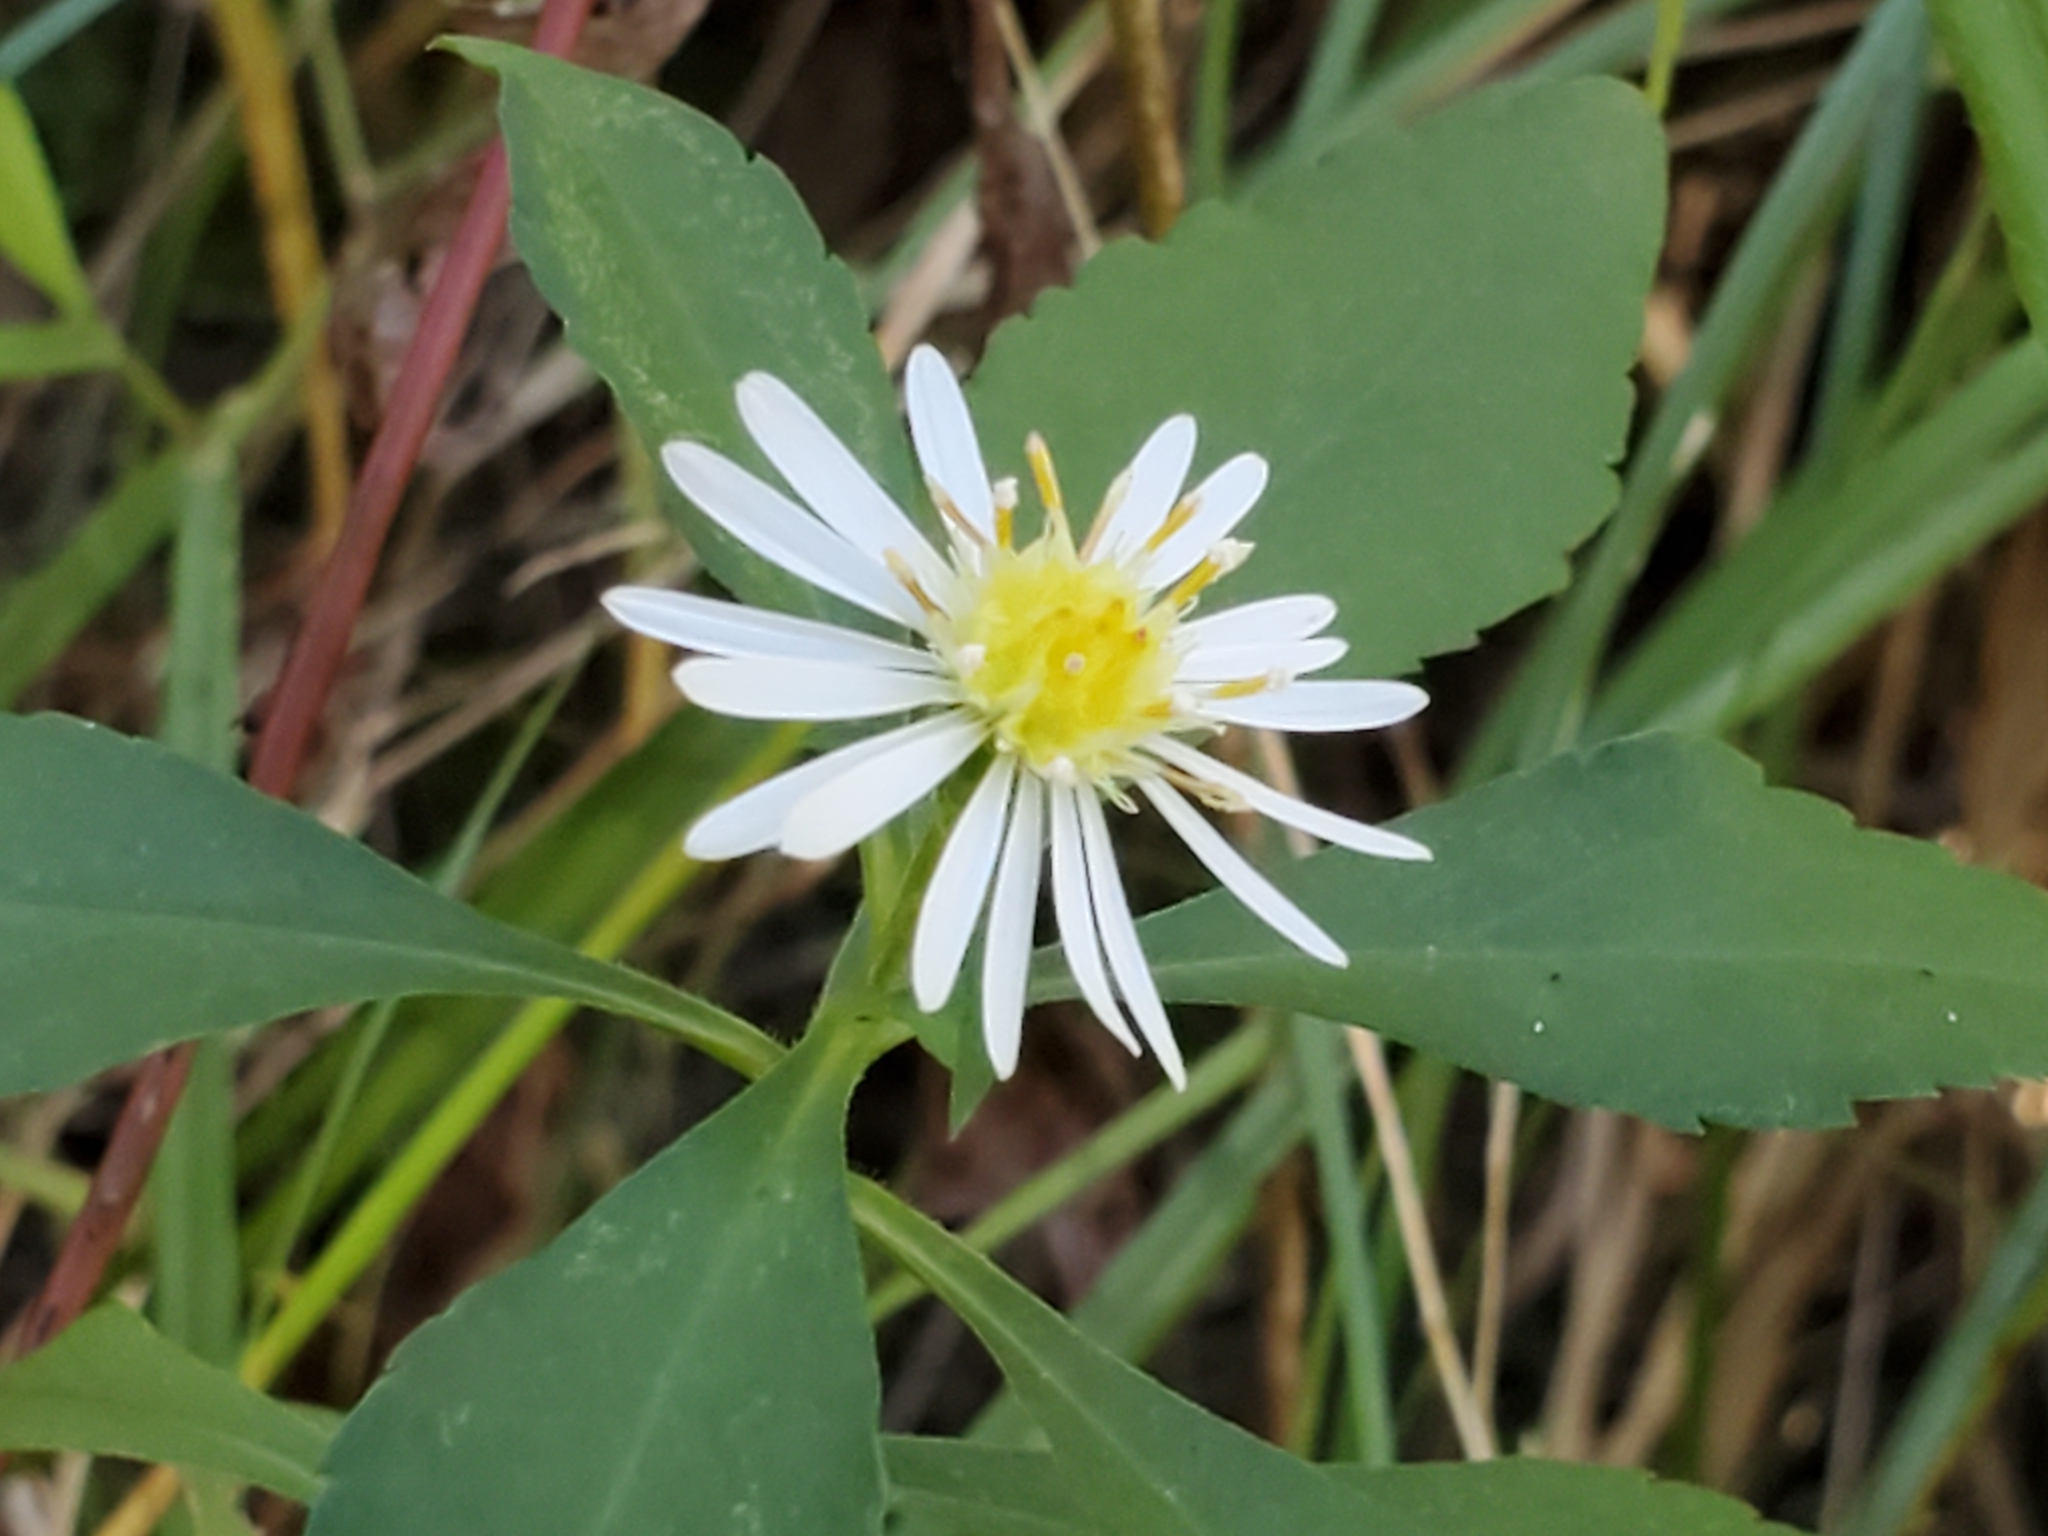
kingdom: Plantae
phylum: Tracheophyta
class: Magnoliopsida
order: Asterales
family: Asteraceae
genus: Symphyotrichum
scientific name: Symphyotrichum lanceolatum
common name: Panicled aster
